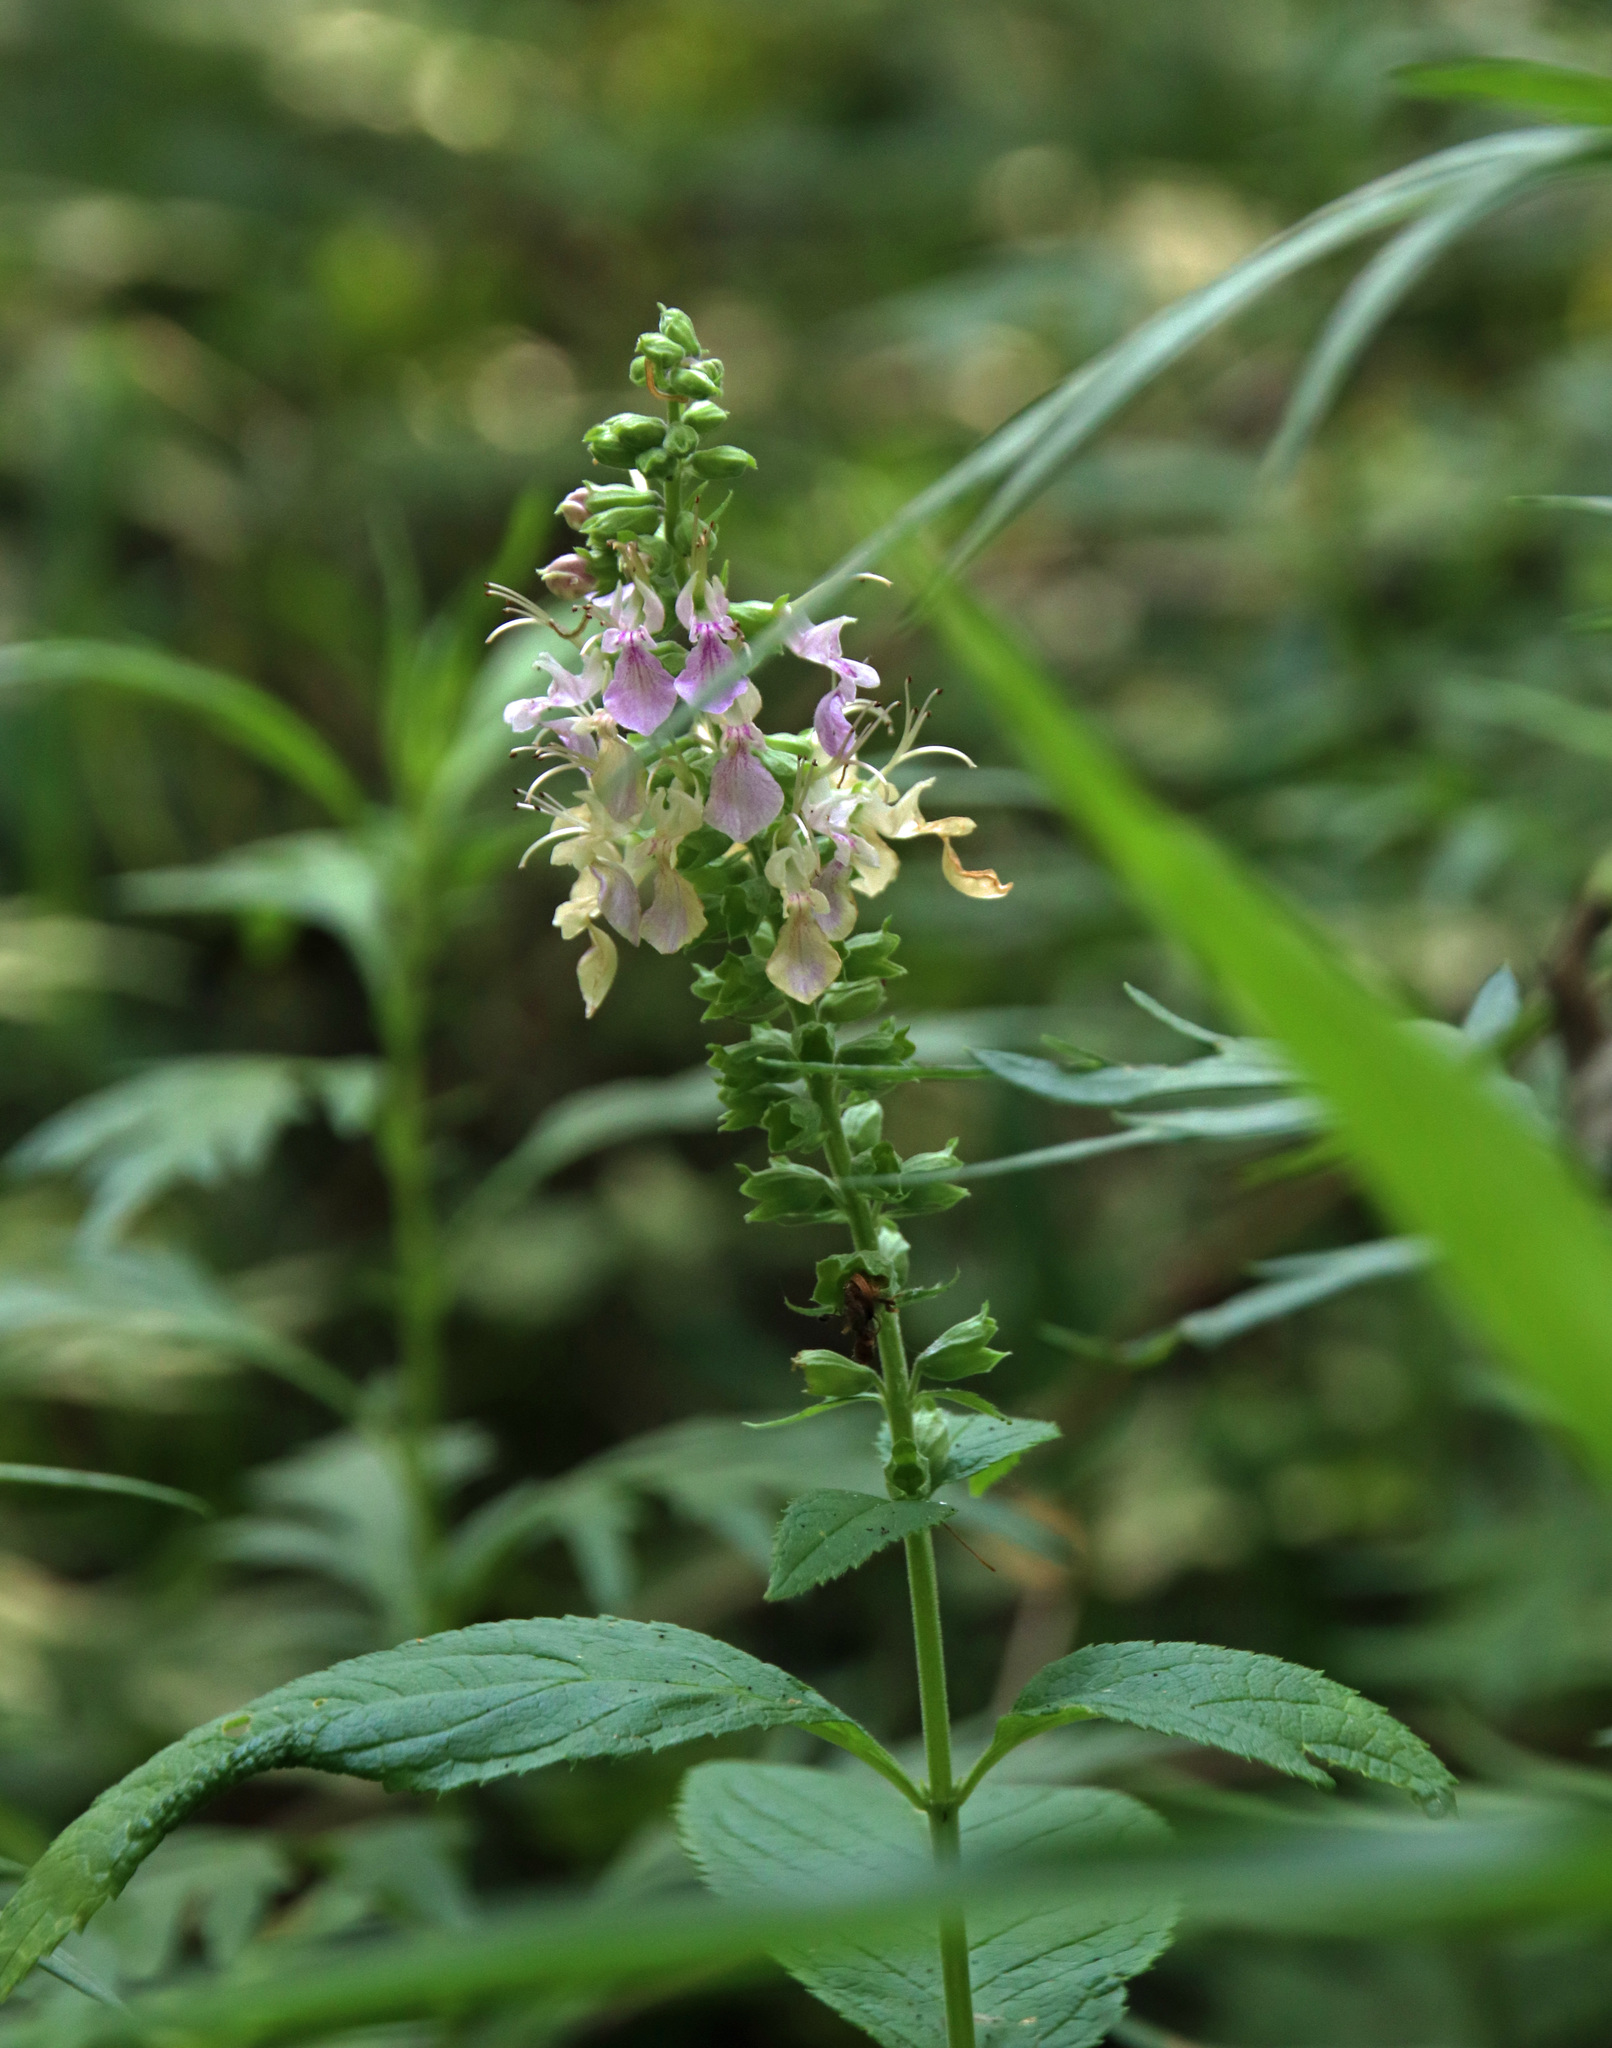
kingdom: Plantae
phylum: Tracheophyta
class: Magnoliopsida
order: Lamiales
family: Lamiaceae
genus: Teucrium
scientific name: Teucrium canadense
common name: American germander
